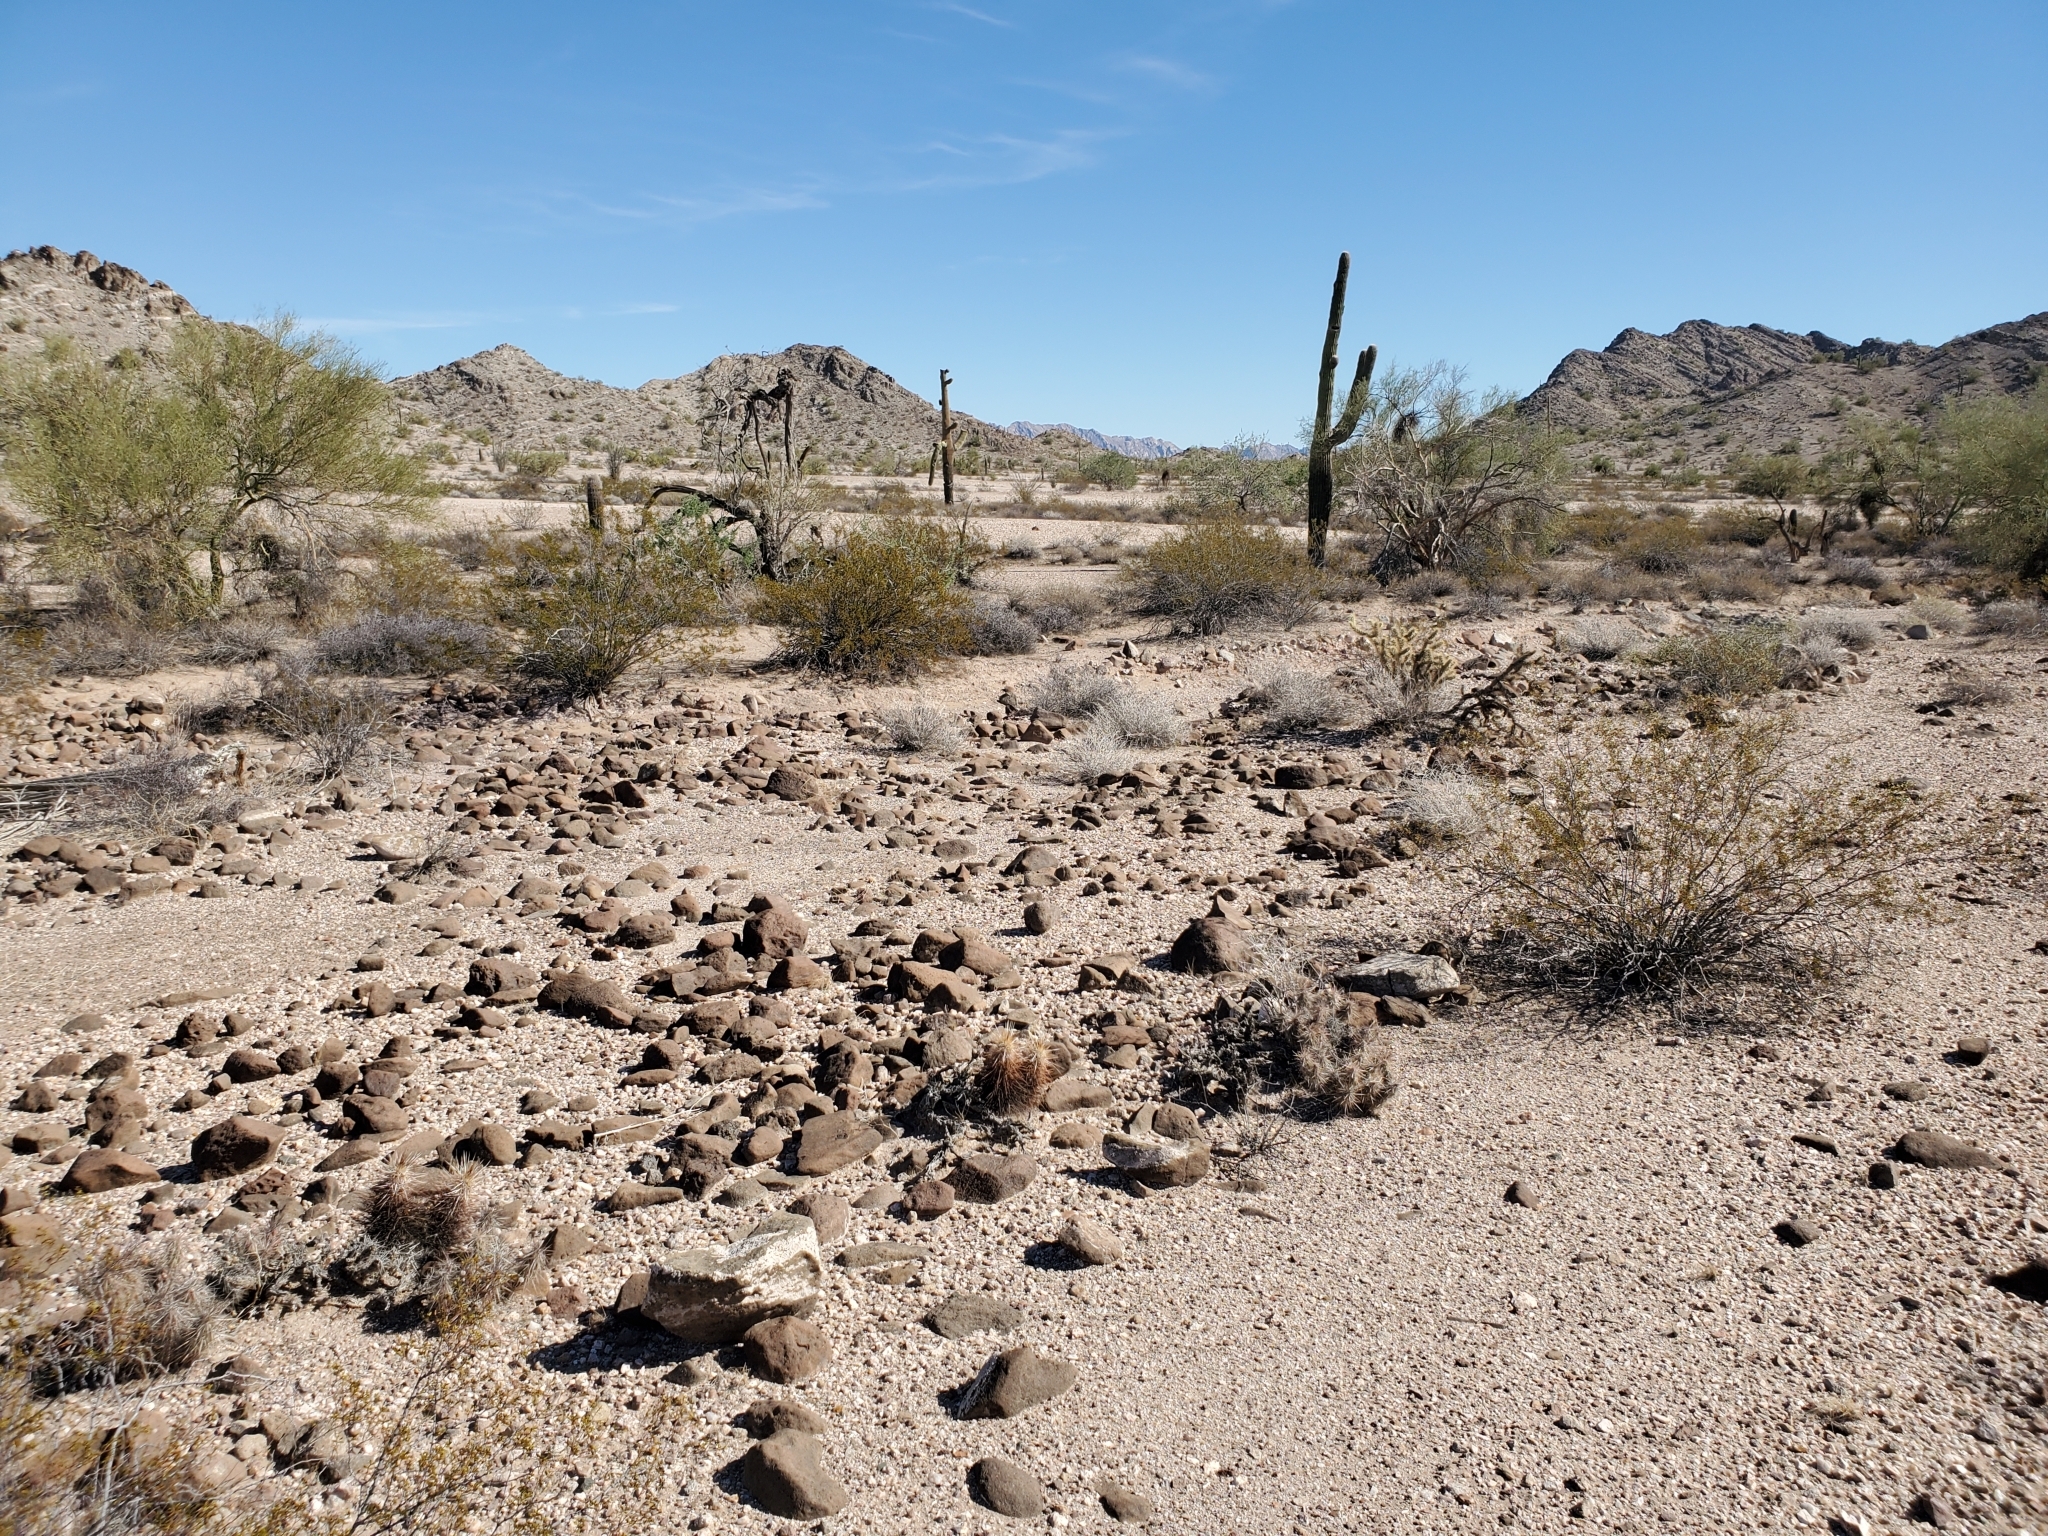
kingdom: Plantae
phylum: Tracheophyta
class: Magnoliopsida
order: Caryophyllales
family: Cactaceae
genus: Grusonia
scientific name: Grusonia kunzei
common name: Wright's club cholla
